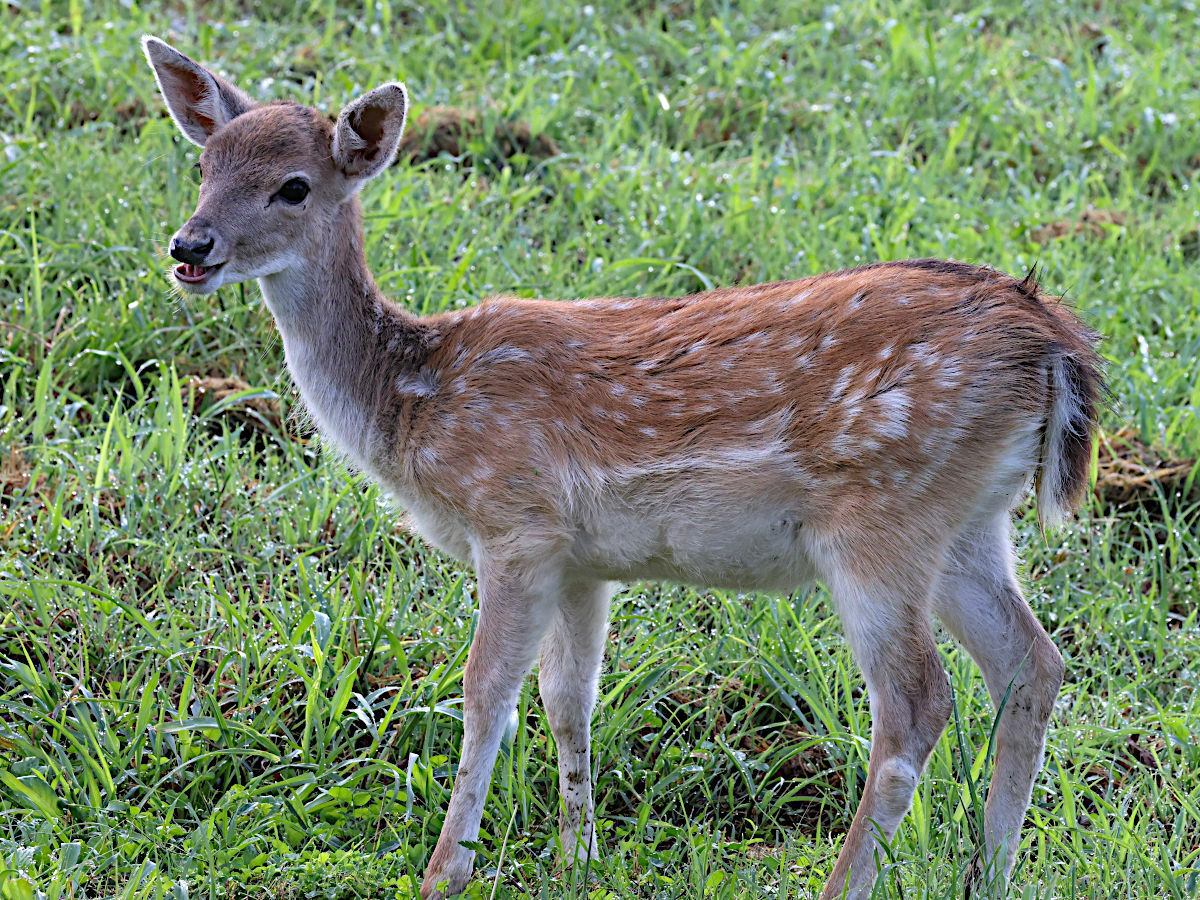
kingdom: Animalia
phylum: Chordata
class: Mammalia
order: Artiodactyla
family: Cervidae
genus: Dama
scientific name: Dama dama
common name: Fallow deer
